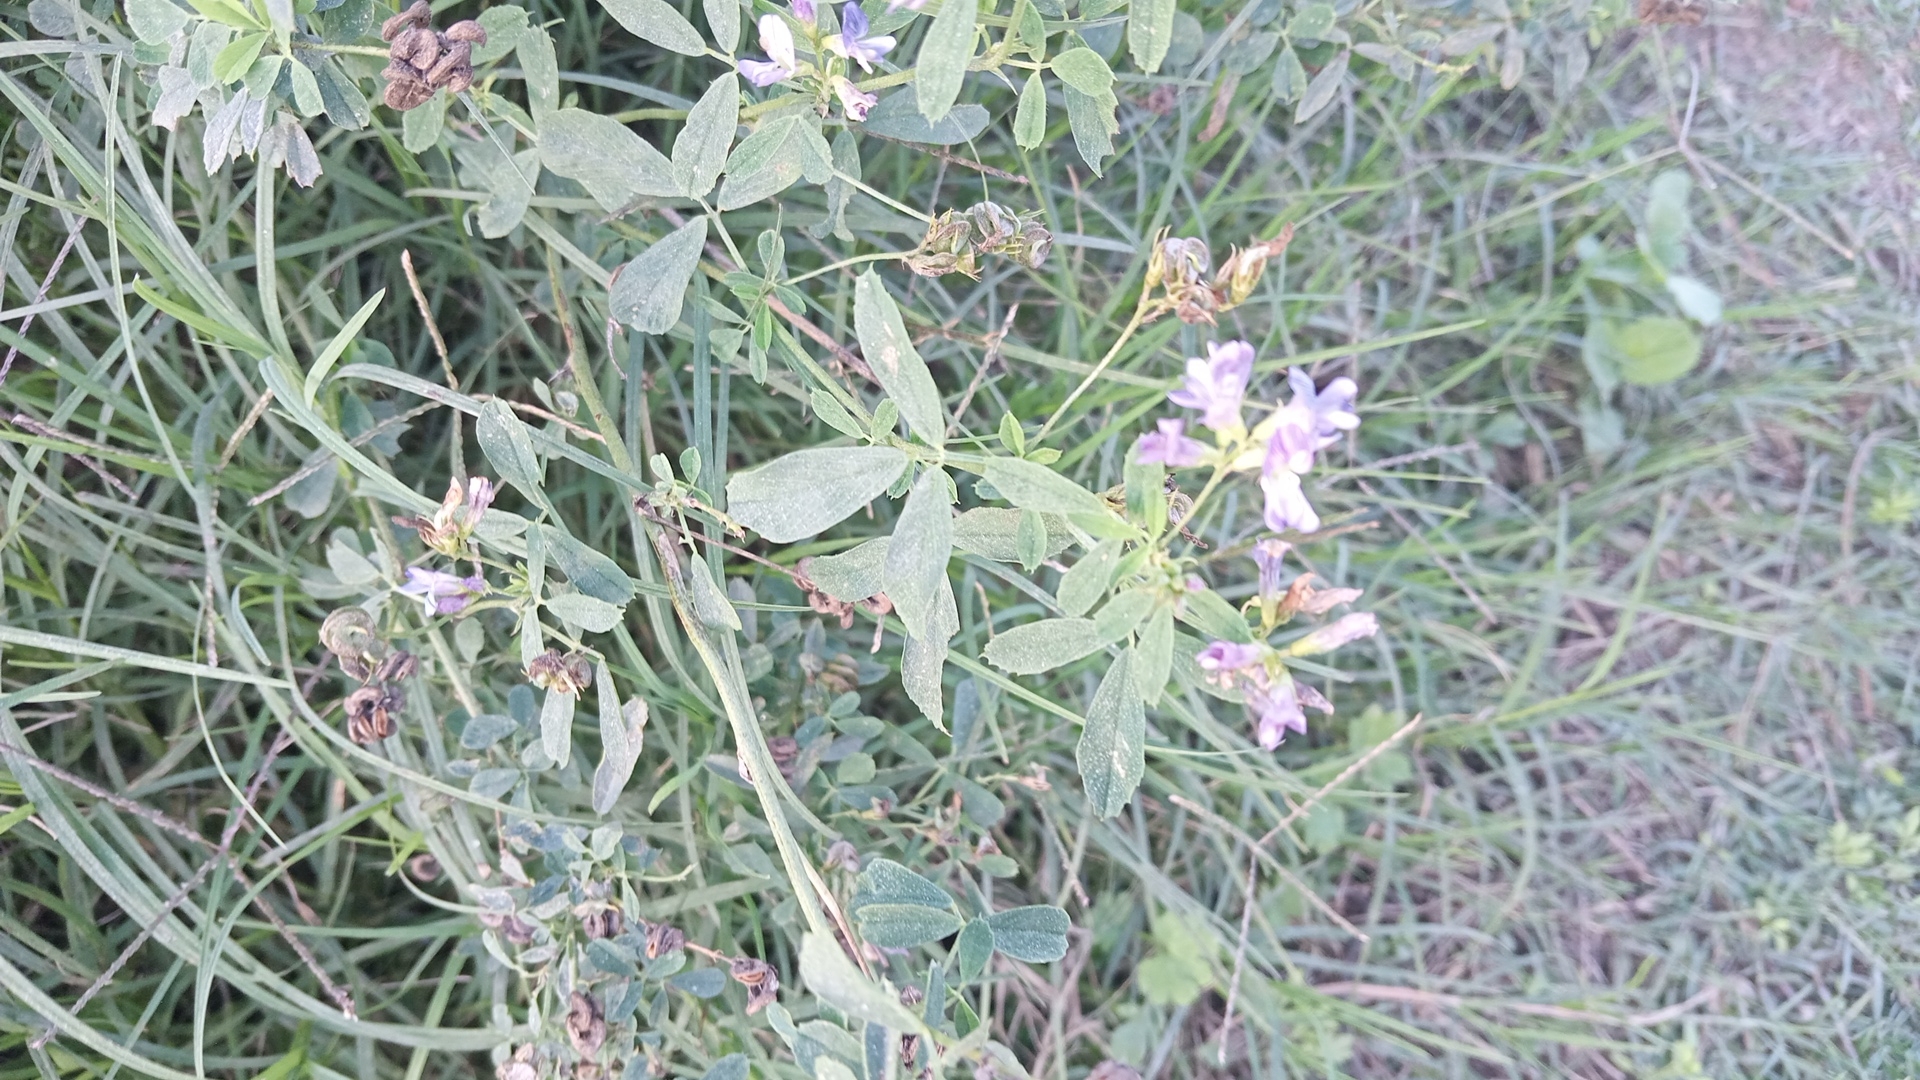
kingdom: Plantae
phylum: Tracheophyta
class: Magnoliopsida
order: Fabales
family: Fabaceae
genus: Medicago
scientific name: Medicago sativa
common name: Alfalfa
